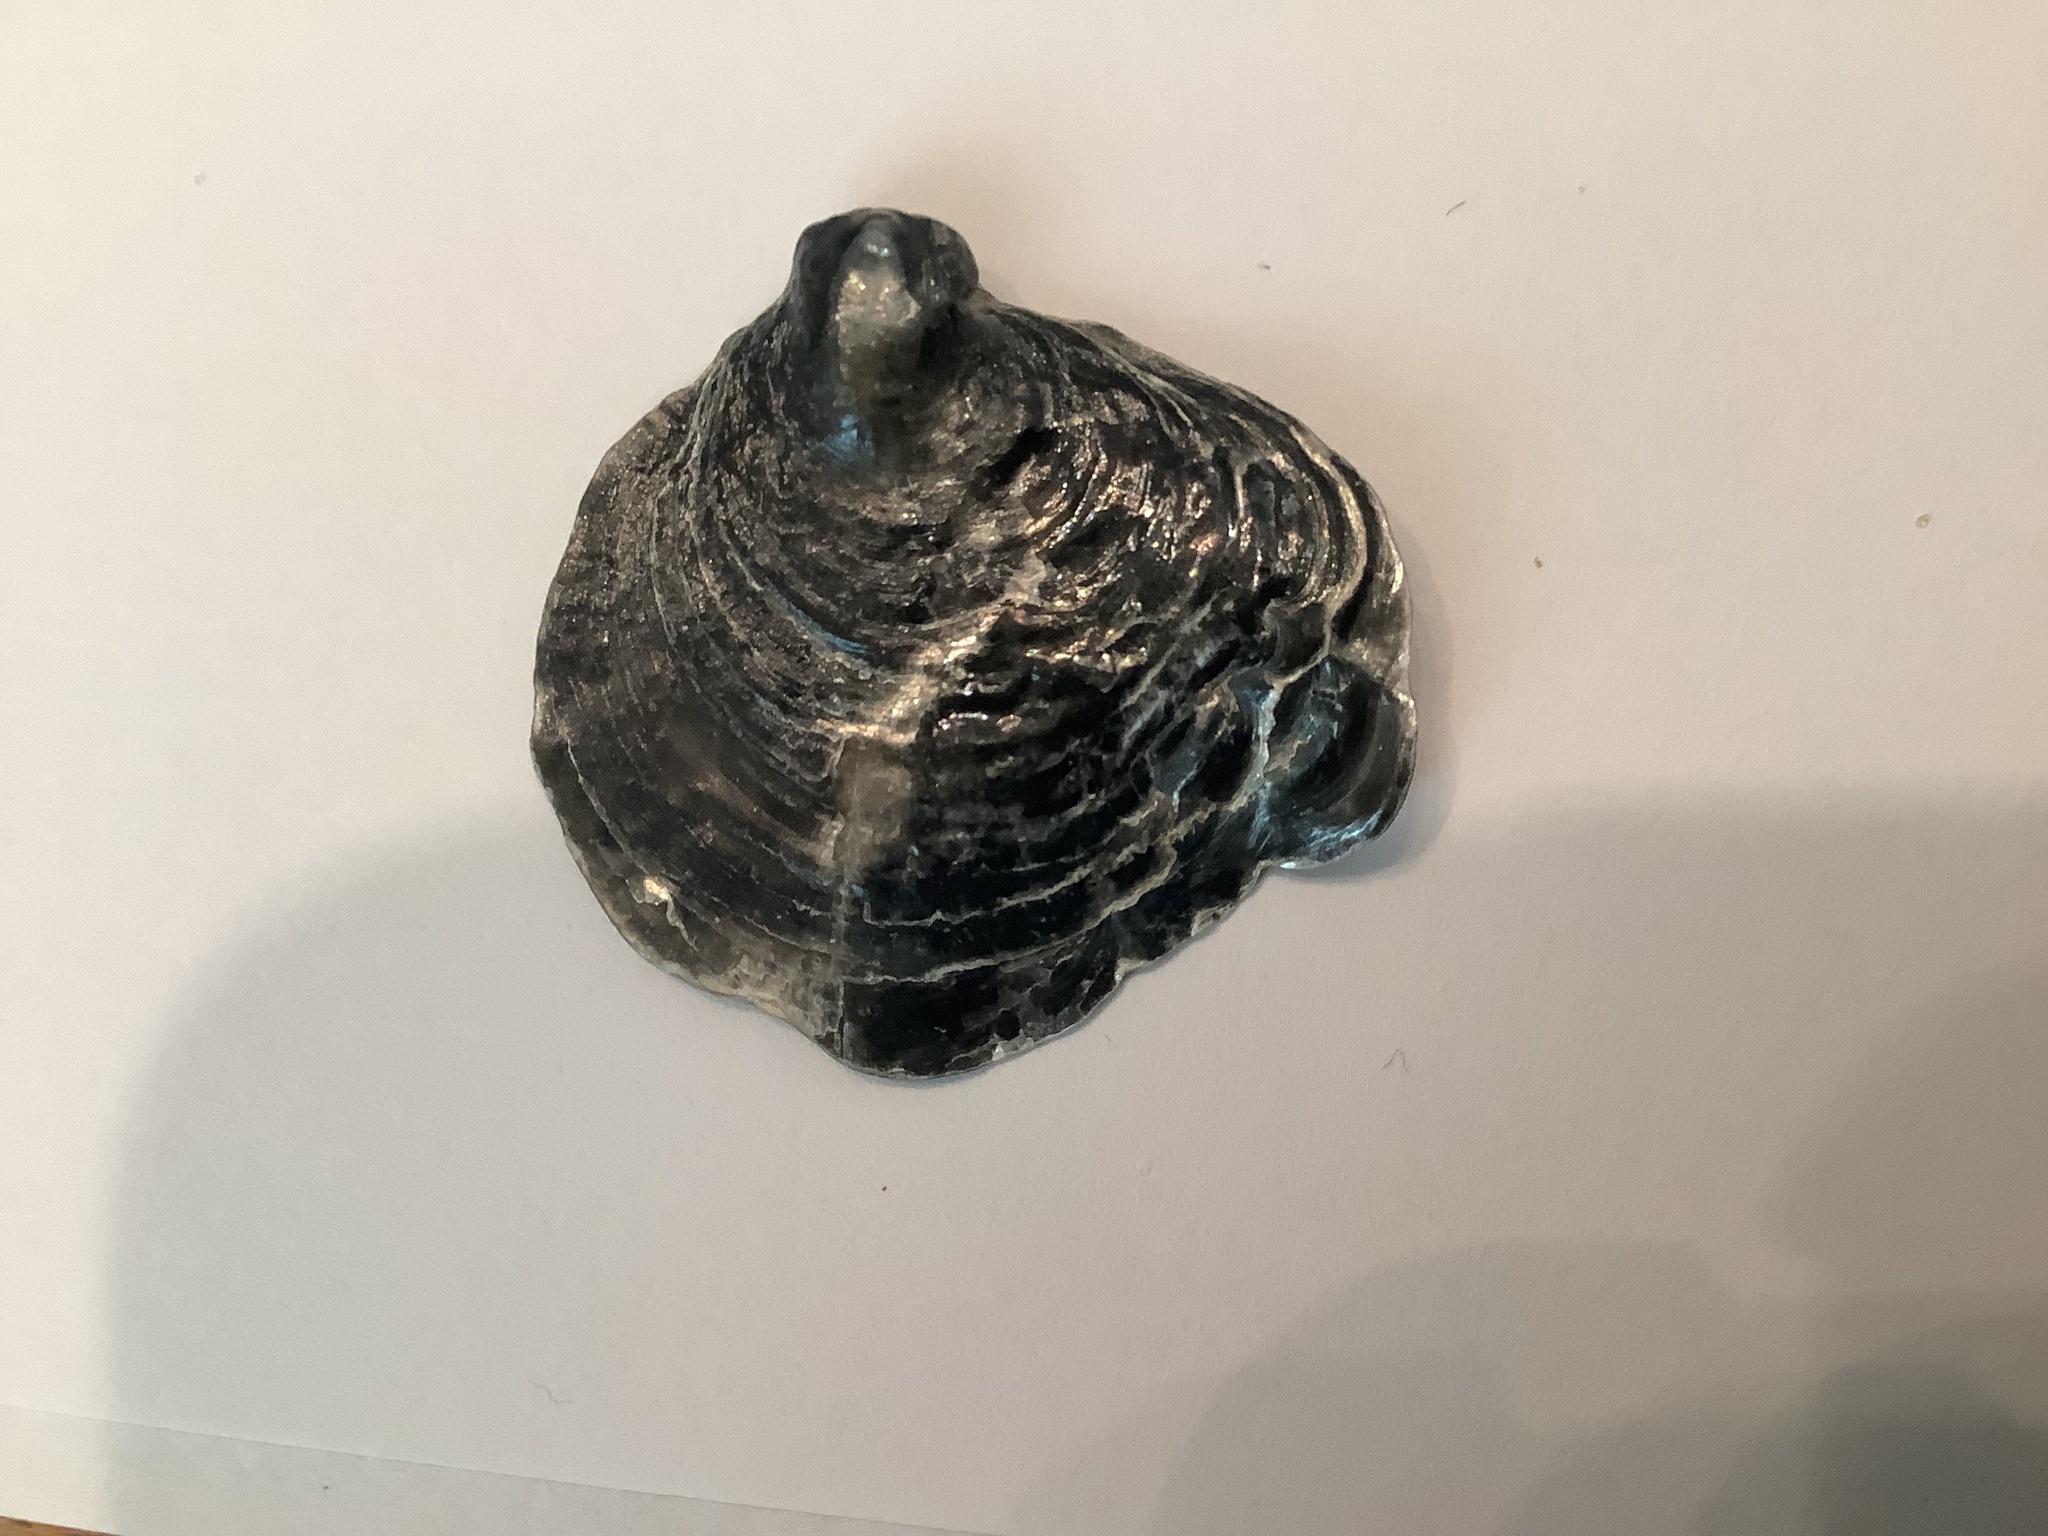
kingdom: Animalia
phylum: Mollusca
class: Bivalvia
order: Pectinida
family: Anomiidae
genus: Anomia
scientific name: Anomia simplex
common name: Common jingle shell
